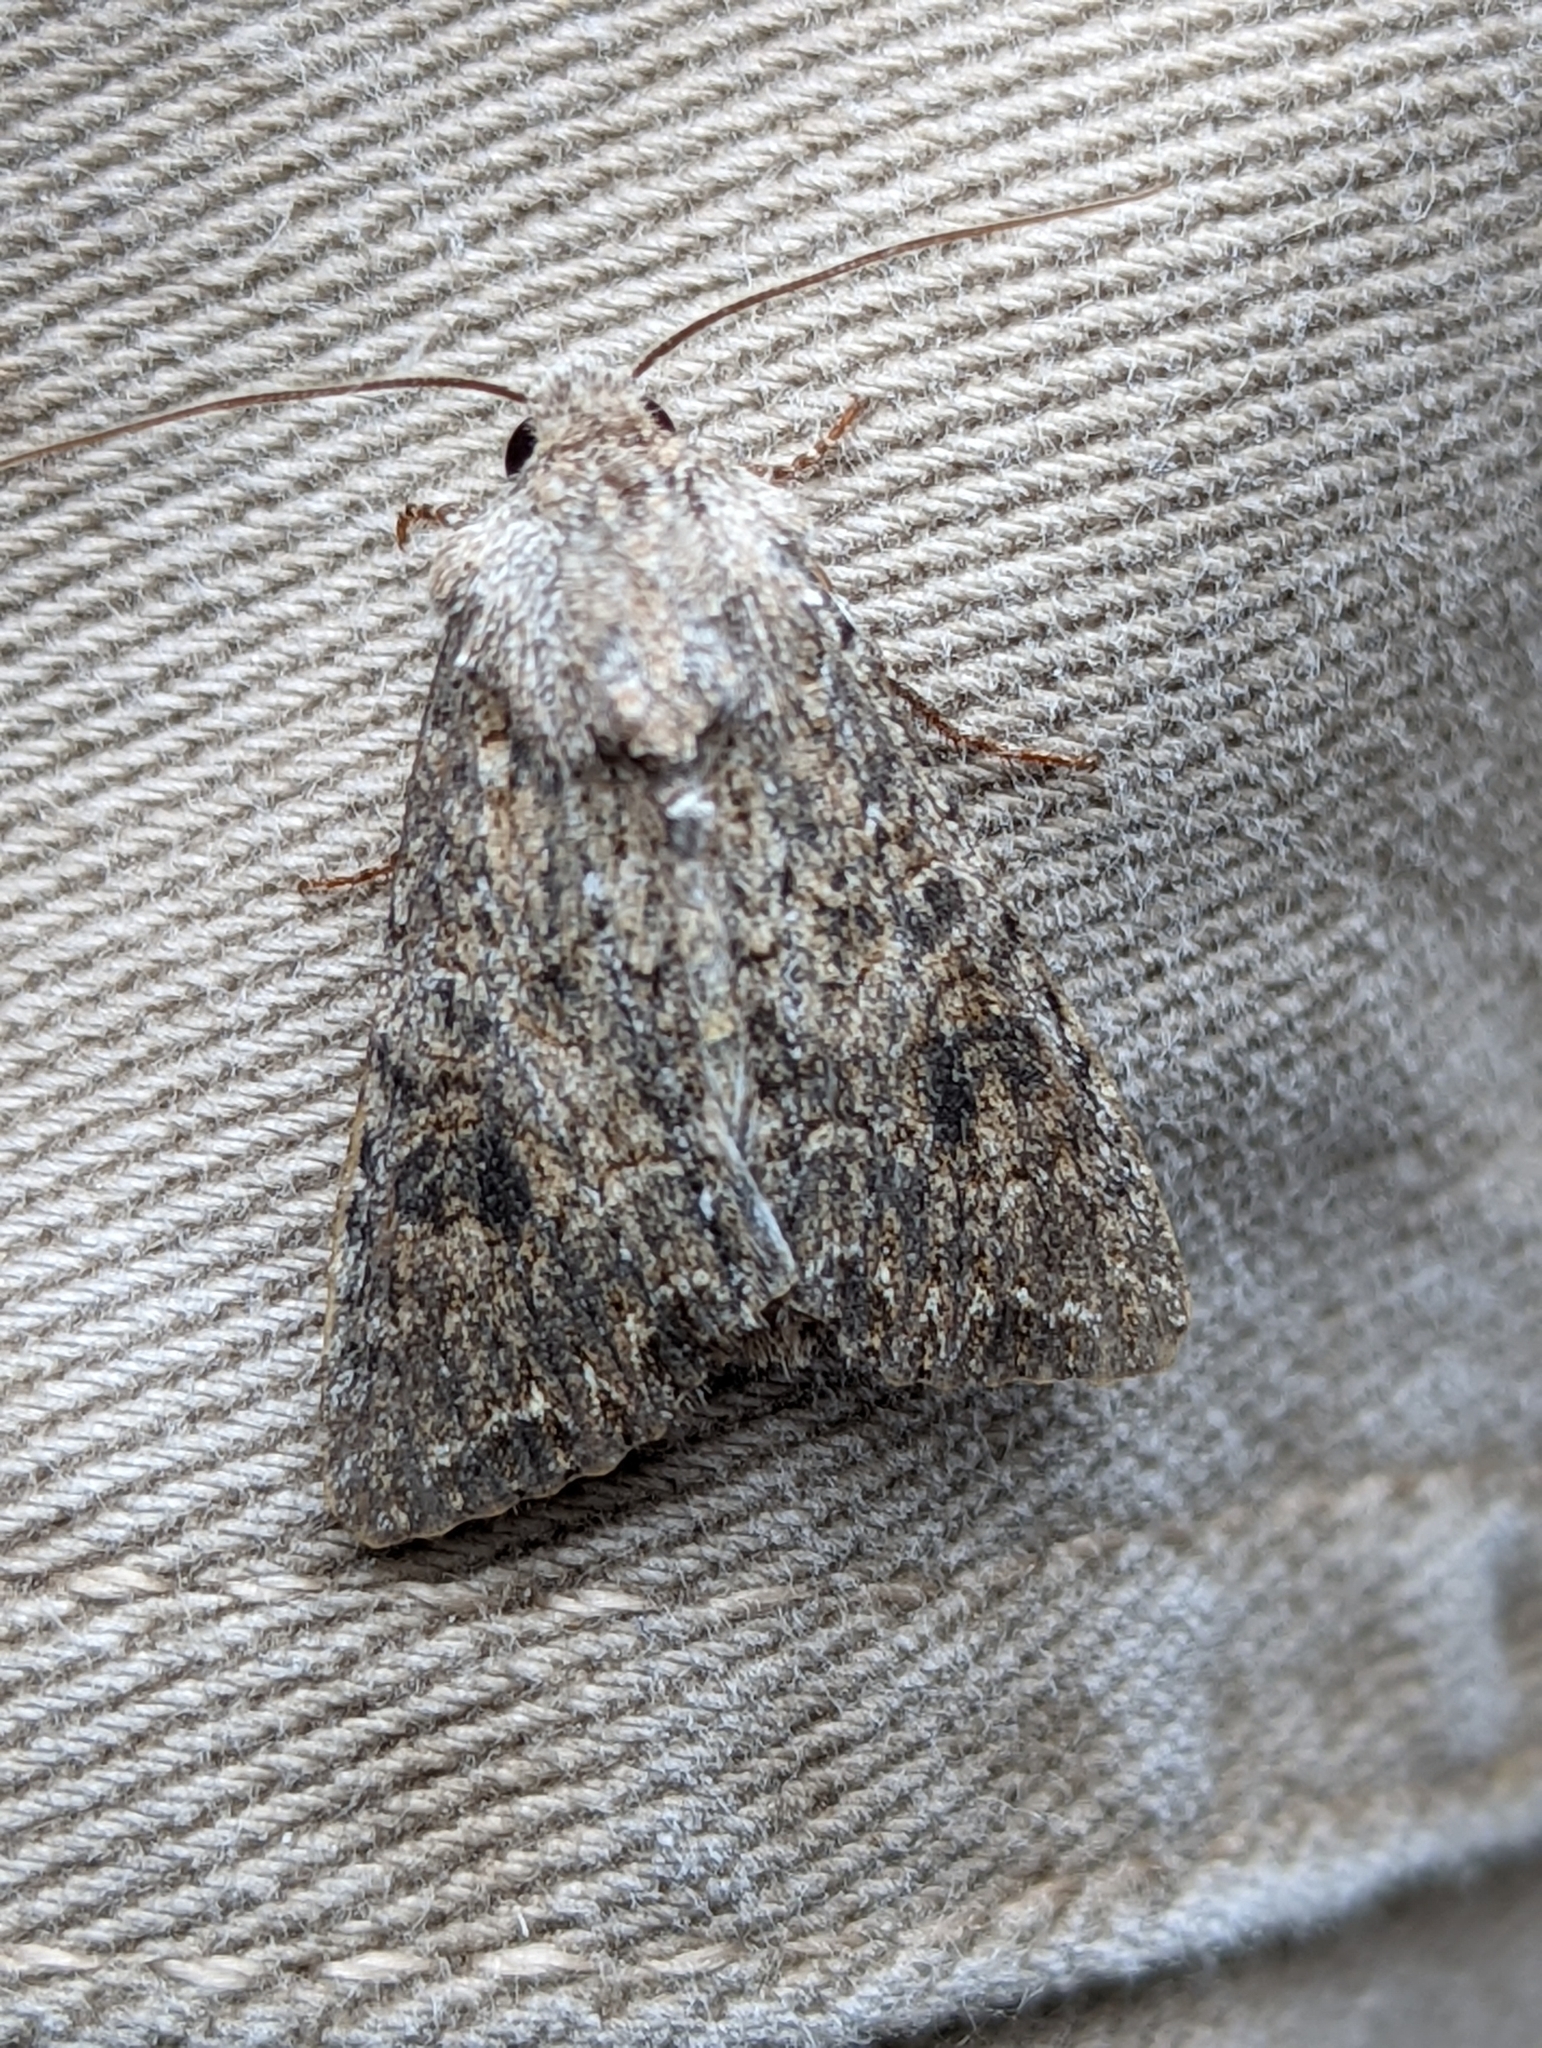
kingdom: Animalia
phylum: Arthropoda
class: Insecta
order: Lepidoptera
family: Noctuidae
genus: Anarta
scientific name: Anarta trifolii
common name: Clover cutworm moth
